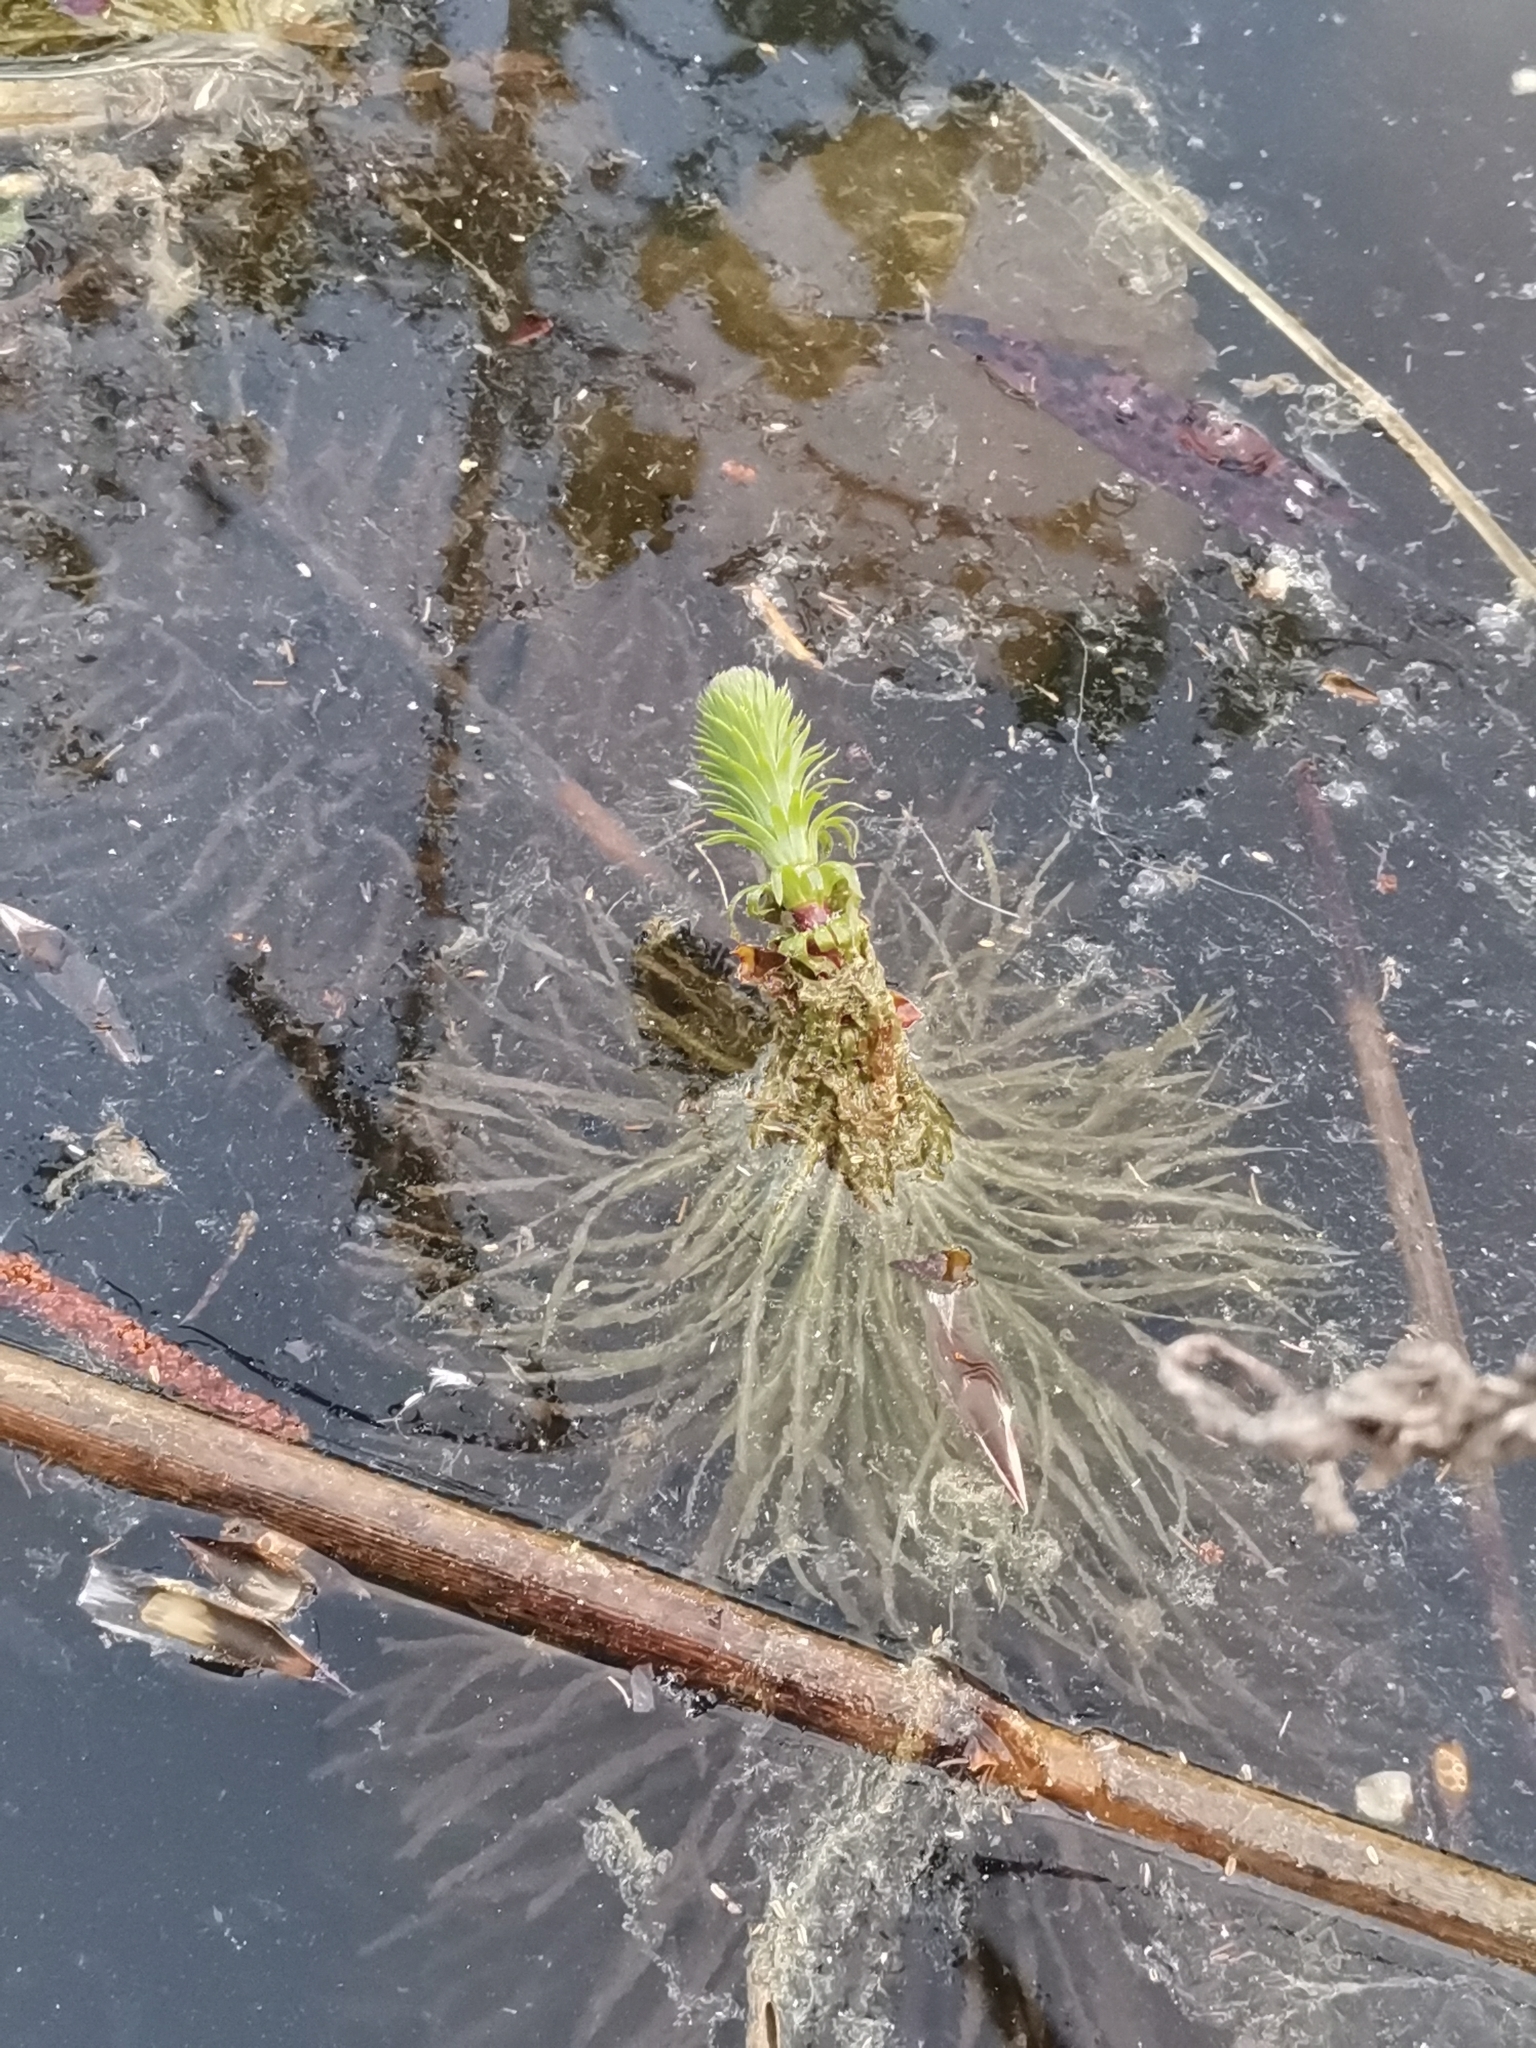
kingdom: Plantae
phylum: Tracheophyta
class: Magnoliopsida
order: Lamiales
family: Plantaginaceae
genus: Hippuris
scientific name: Hippuris vulgaris
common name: Mare's-tail
